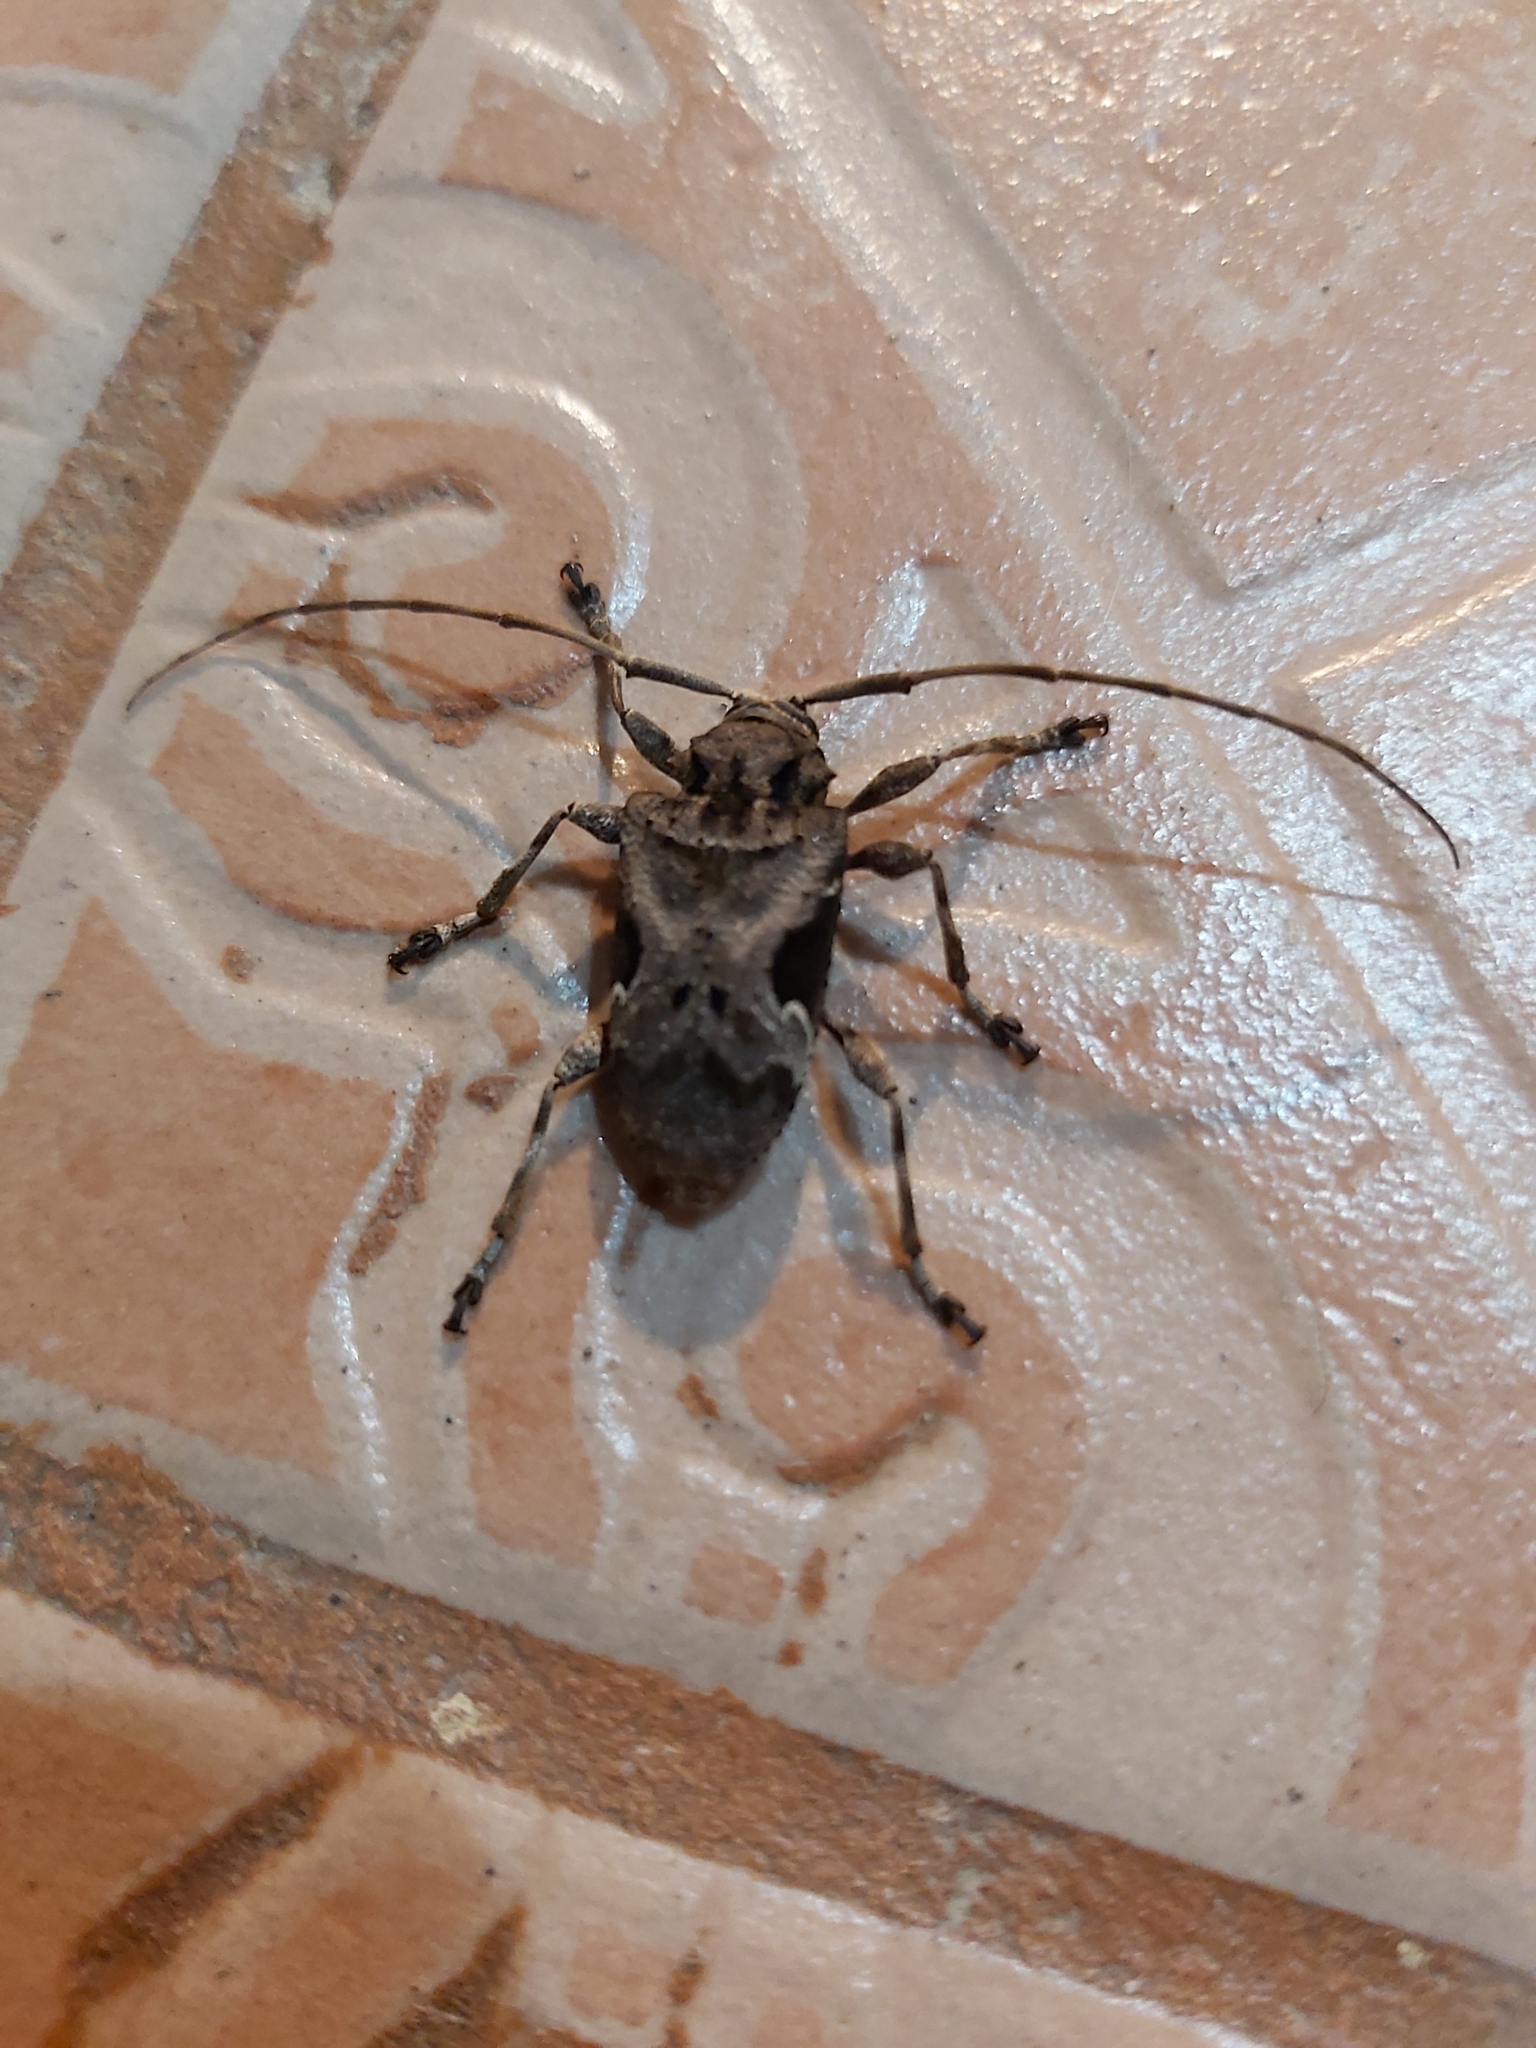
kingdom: Animalia
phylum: Arthropoda
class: Insecta
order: Coleoptera
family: Cerambycidae
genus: Lagocheirus
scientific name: Lagocheirus araneiformis
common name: Beetle
